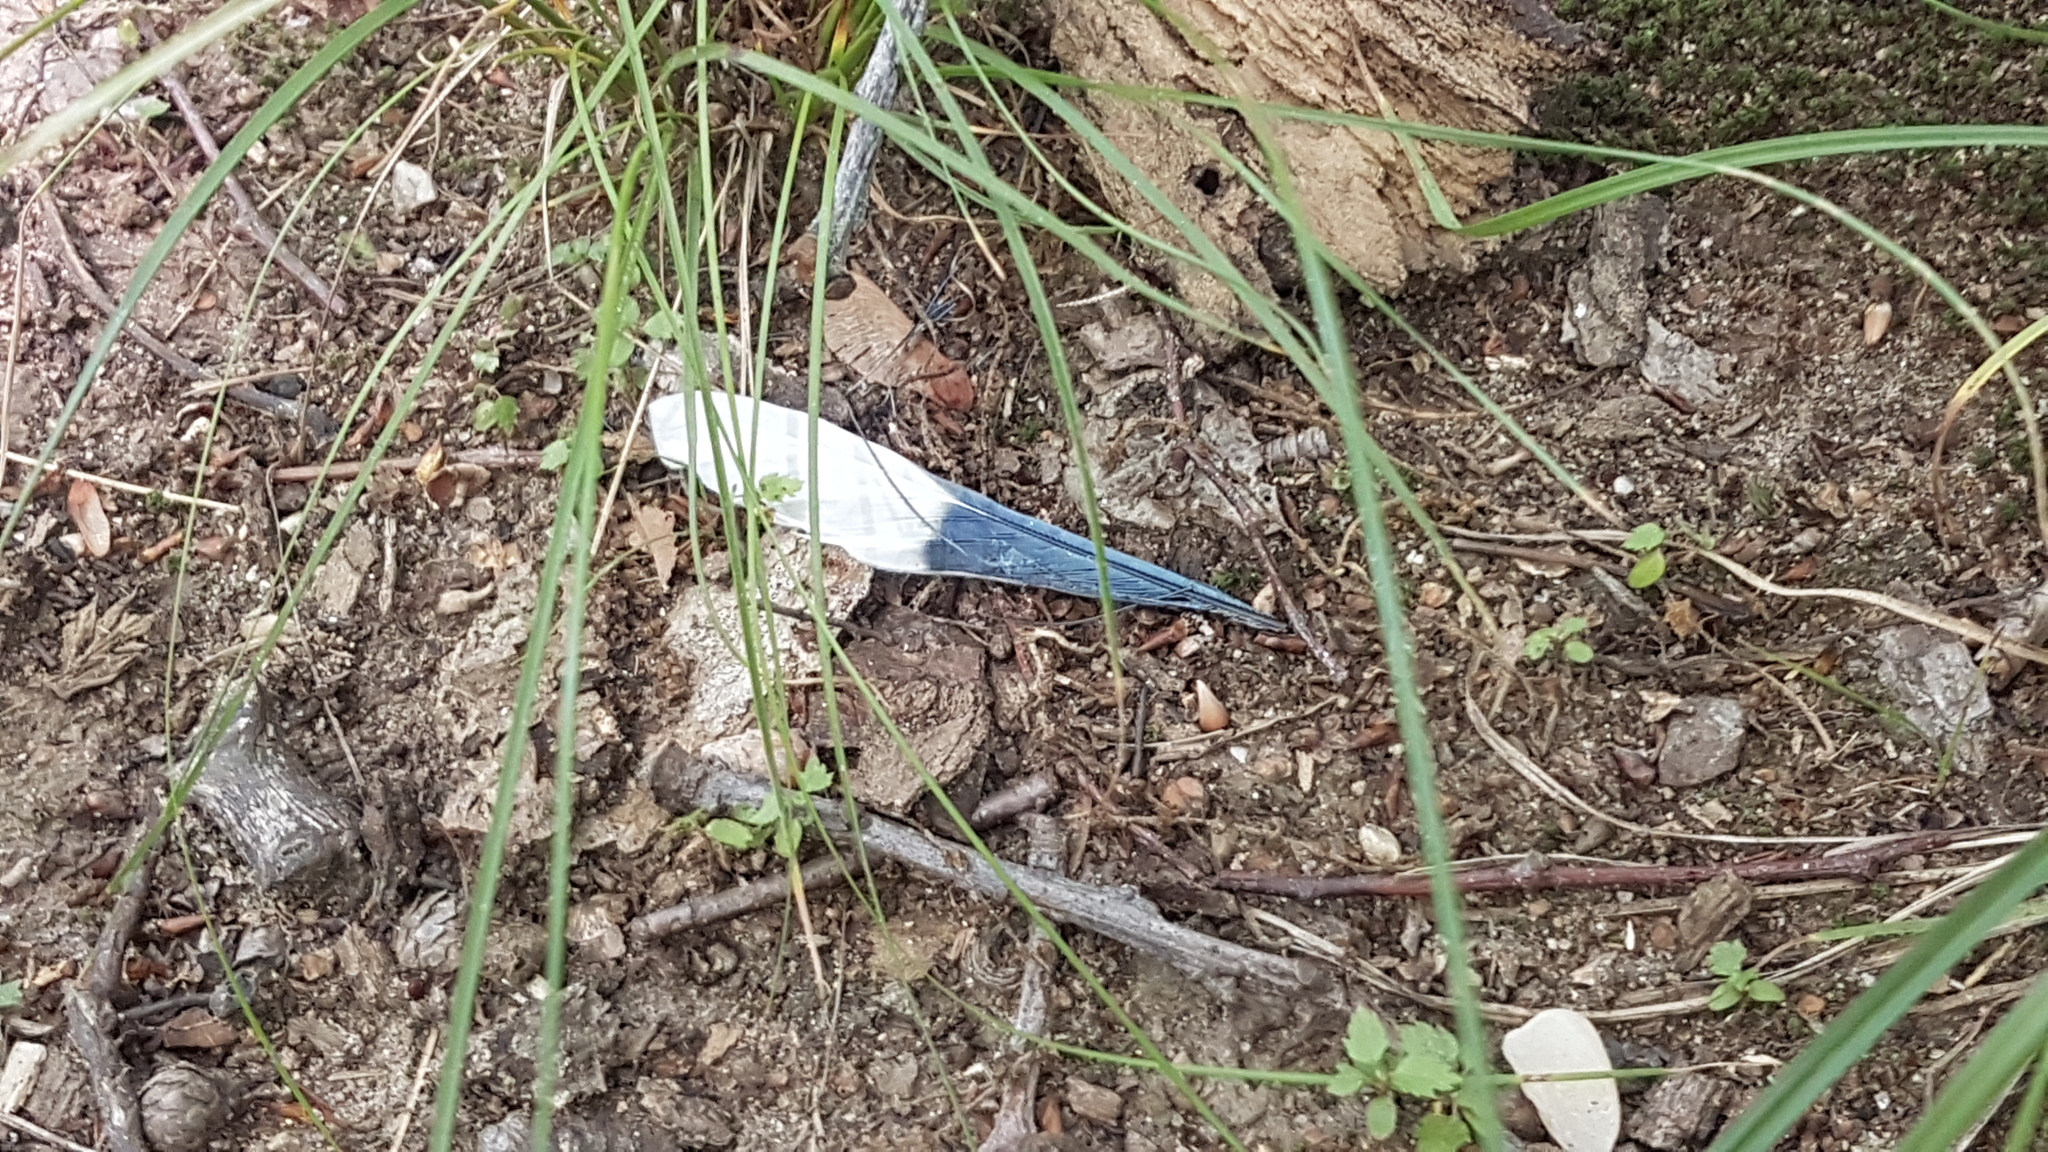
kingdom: Animalia
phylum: Chordata
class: Aves
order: Passeriformes
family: Corvidae
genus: Cyanocitta
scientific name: Cyanocitta cristata
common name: Blue jay
